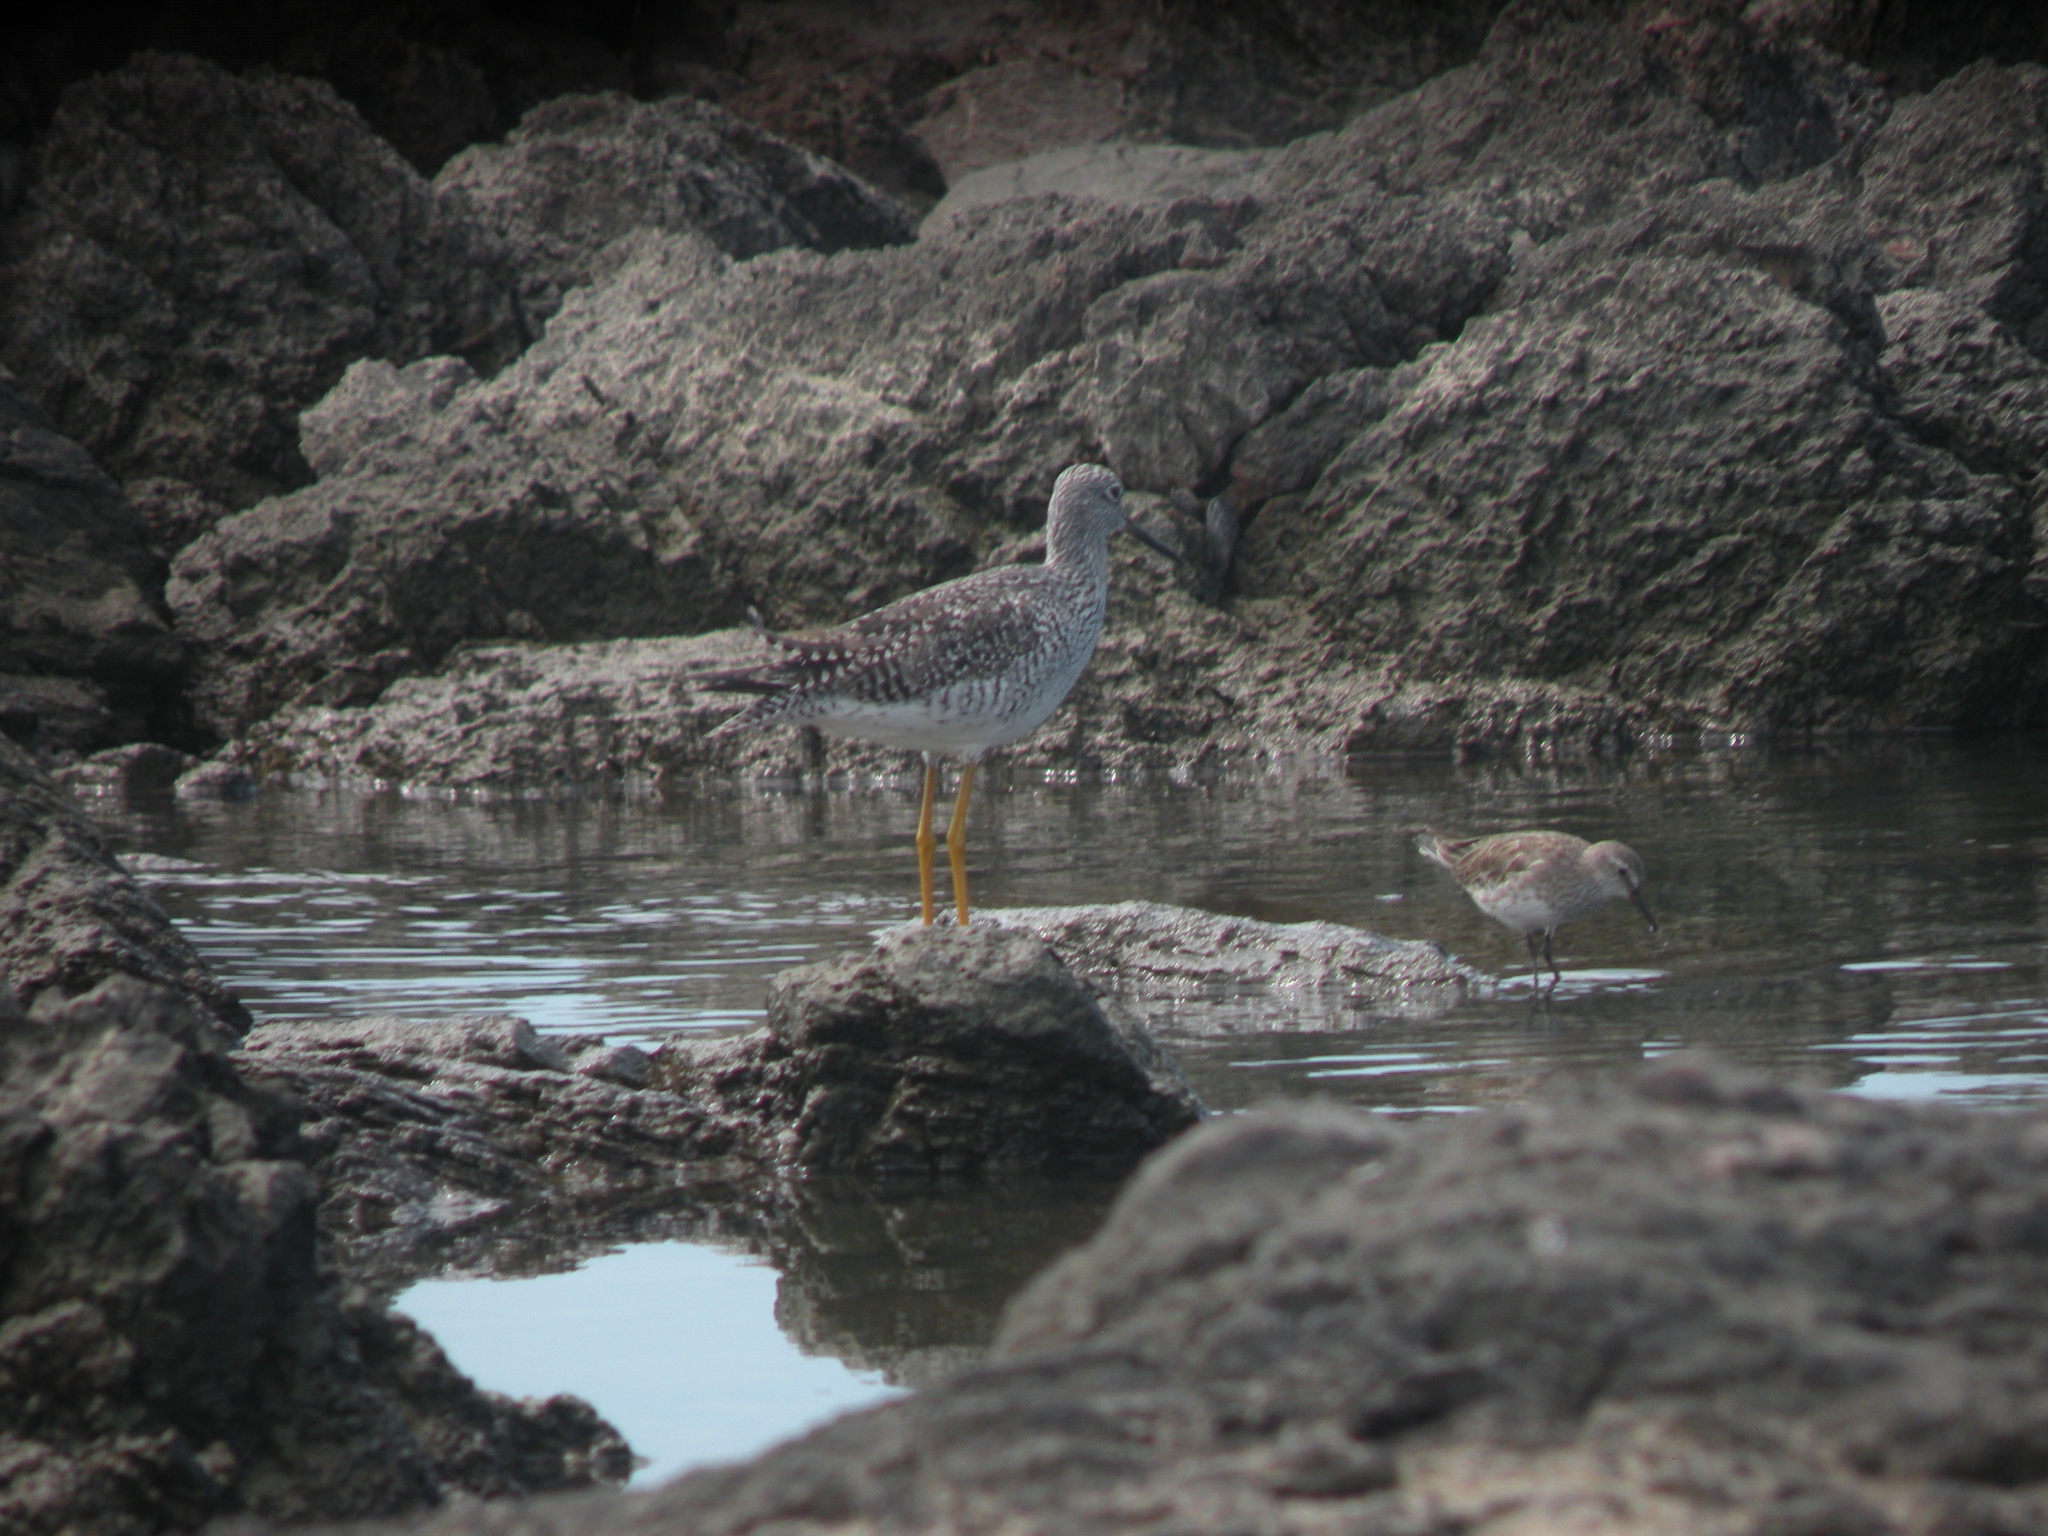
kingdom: Animalia
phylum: Chordata
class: Aves
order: Charadriiformes
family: Scolopacidae
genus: Tringa
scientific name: Tringa melanoleuca
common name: Greater yellowlegs
